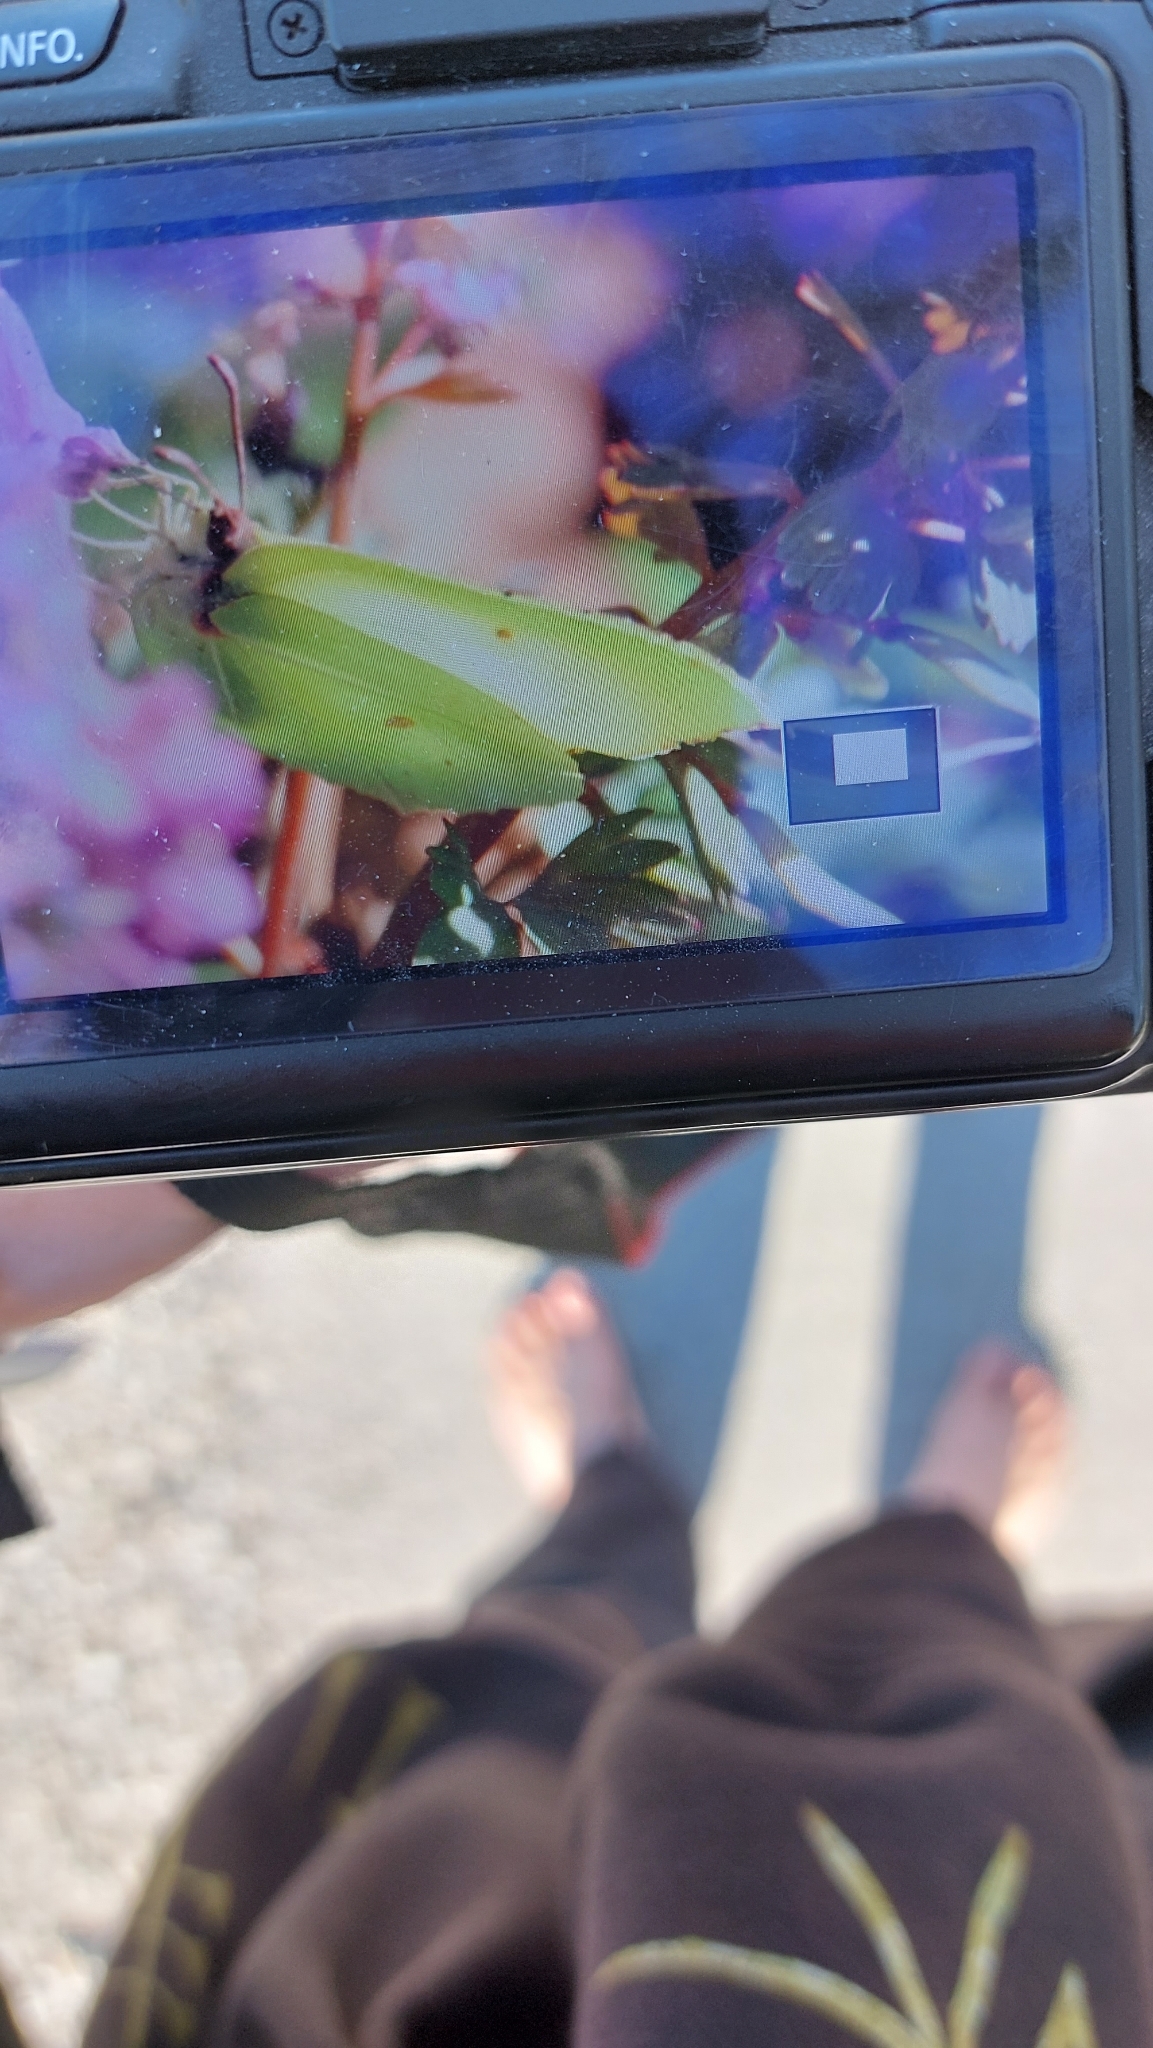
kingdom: Animalia
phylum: Arthropoda
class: Insecta
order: Lepidoptera
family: Pieridae
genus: Gonepteryx
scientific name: Gonepteryx rhamni
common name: Brimstone
